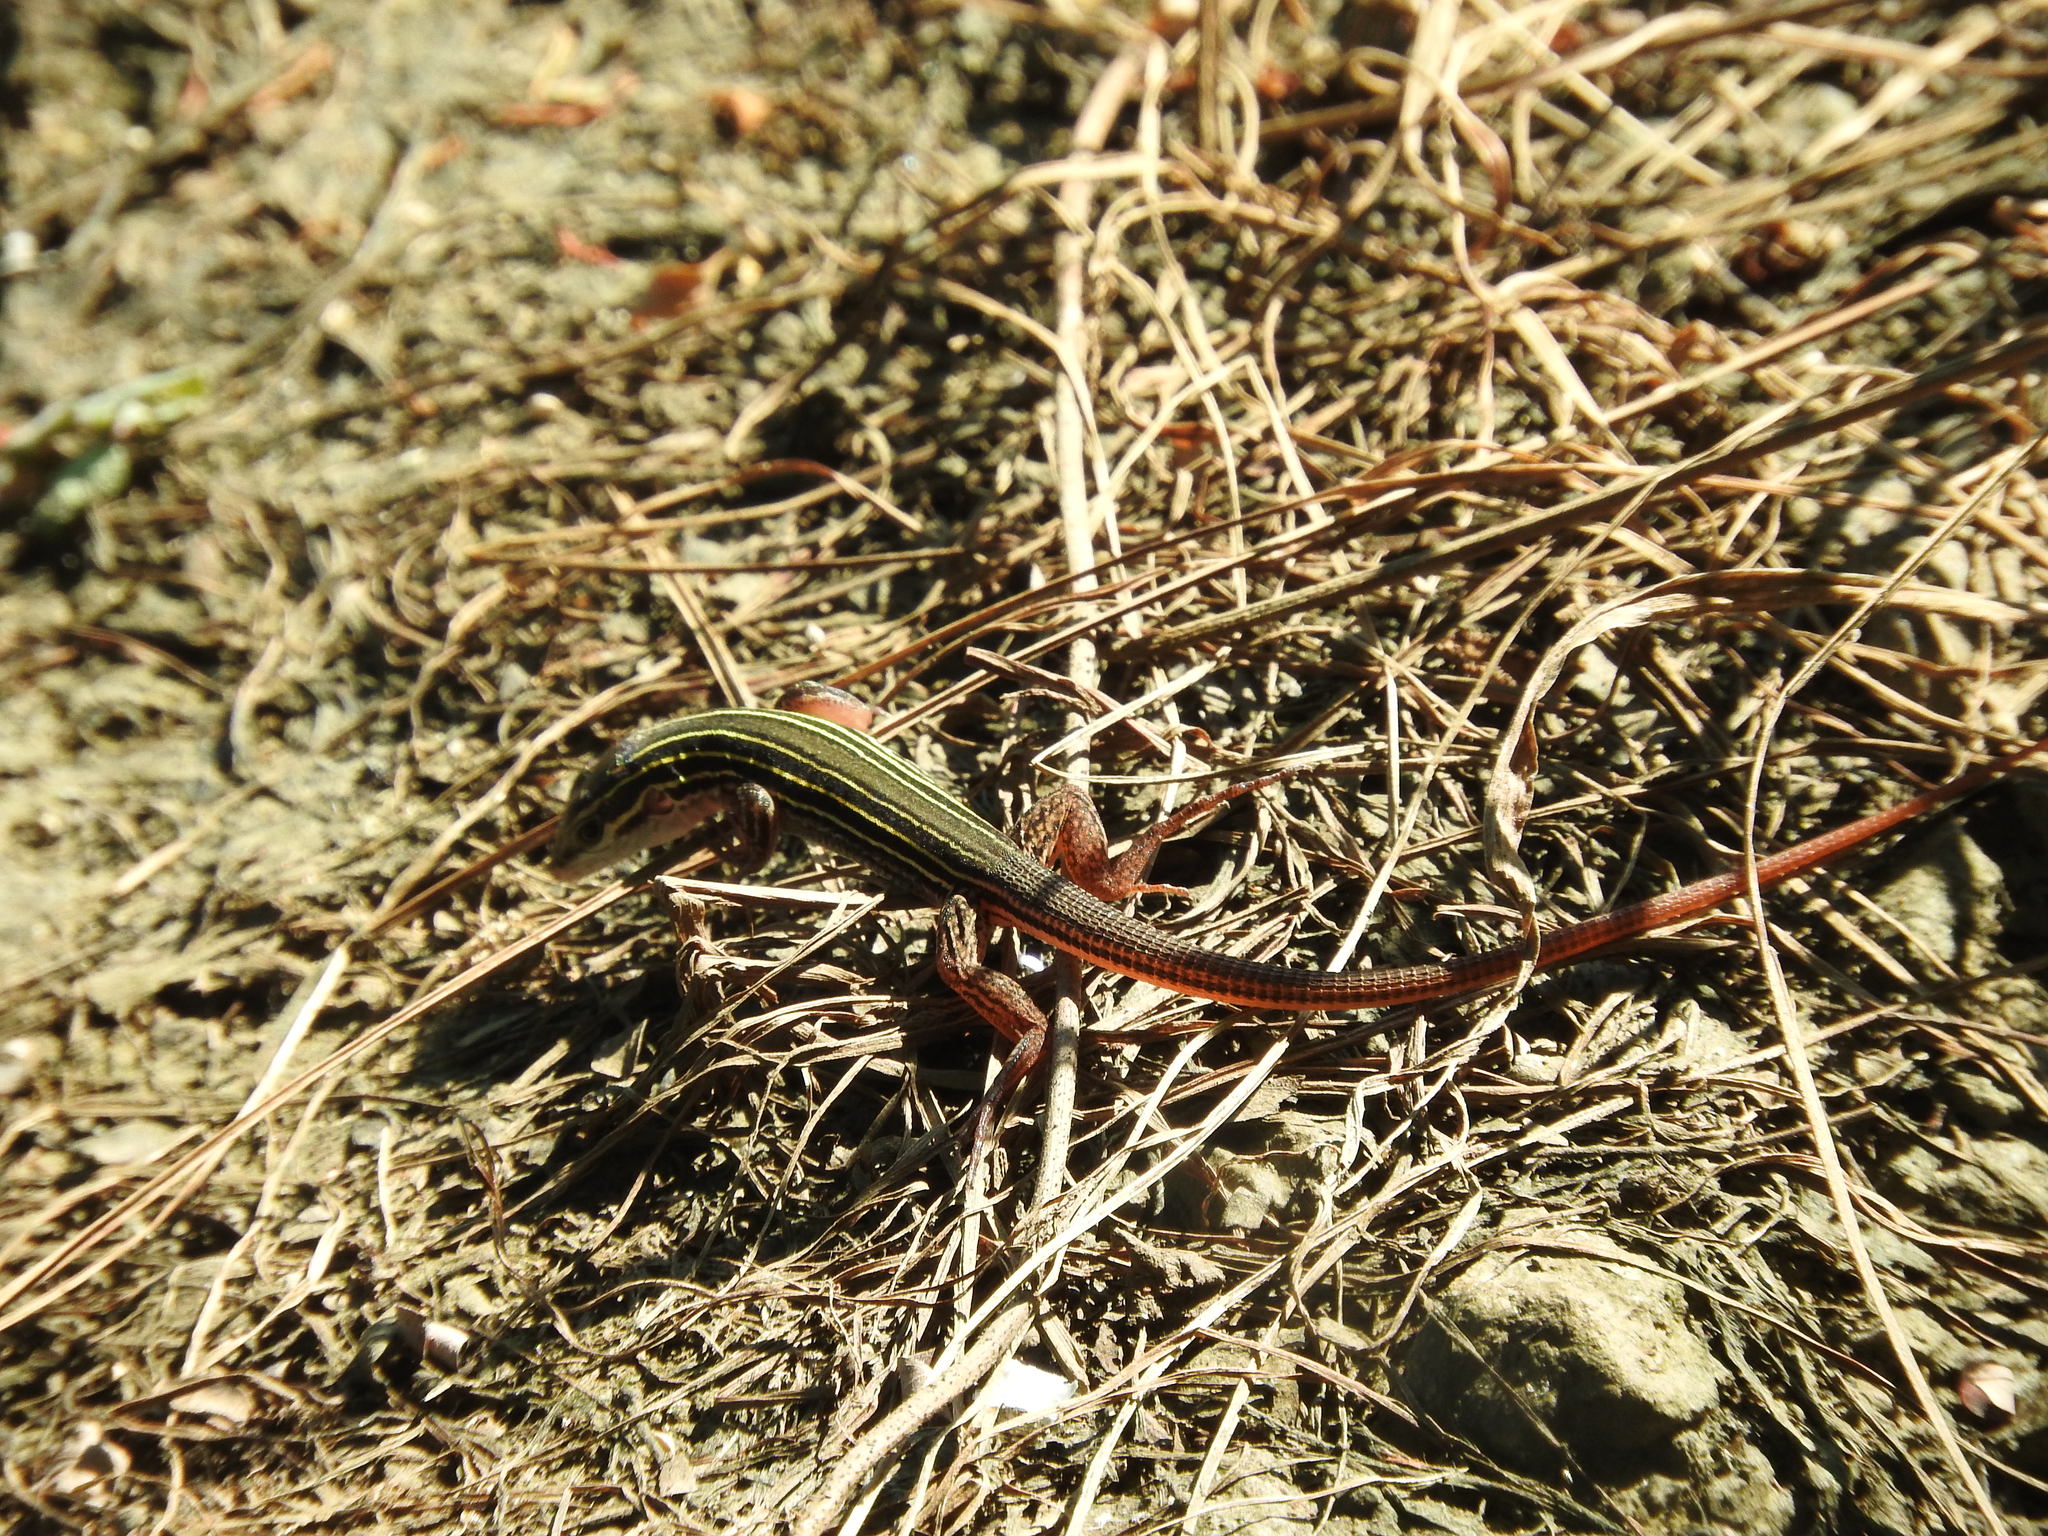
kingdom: Animalia
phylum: Chordata
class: Squamata
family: Teiidae
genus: Aspidoscelis
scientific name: Aspidoscelis costatus
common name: Western mexico whiptail
